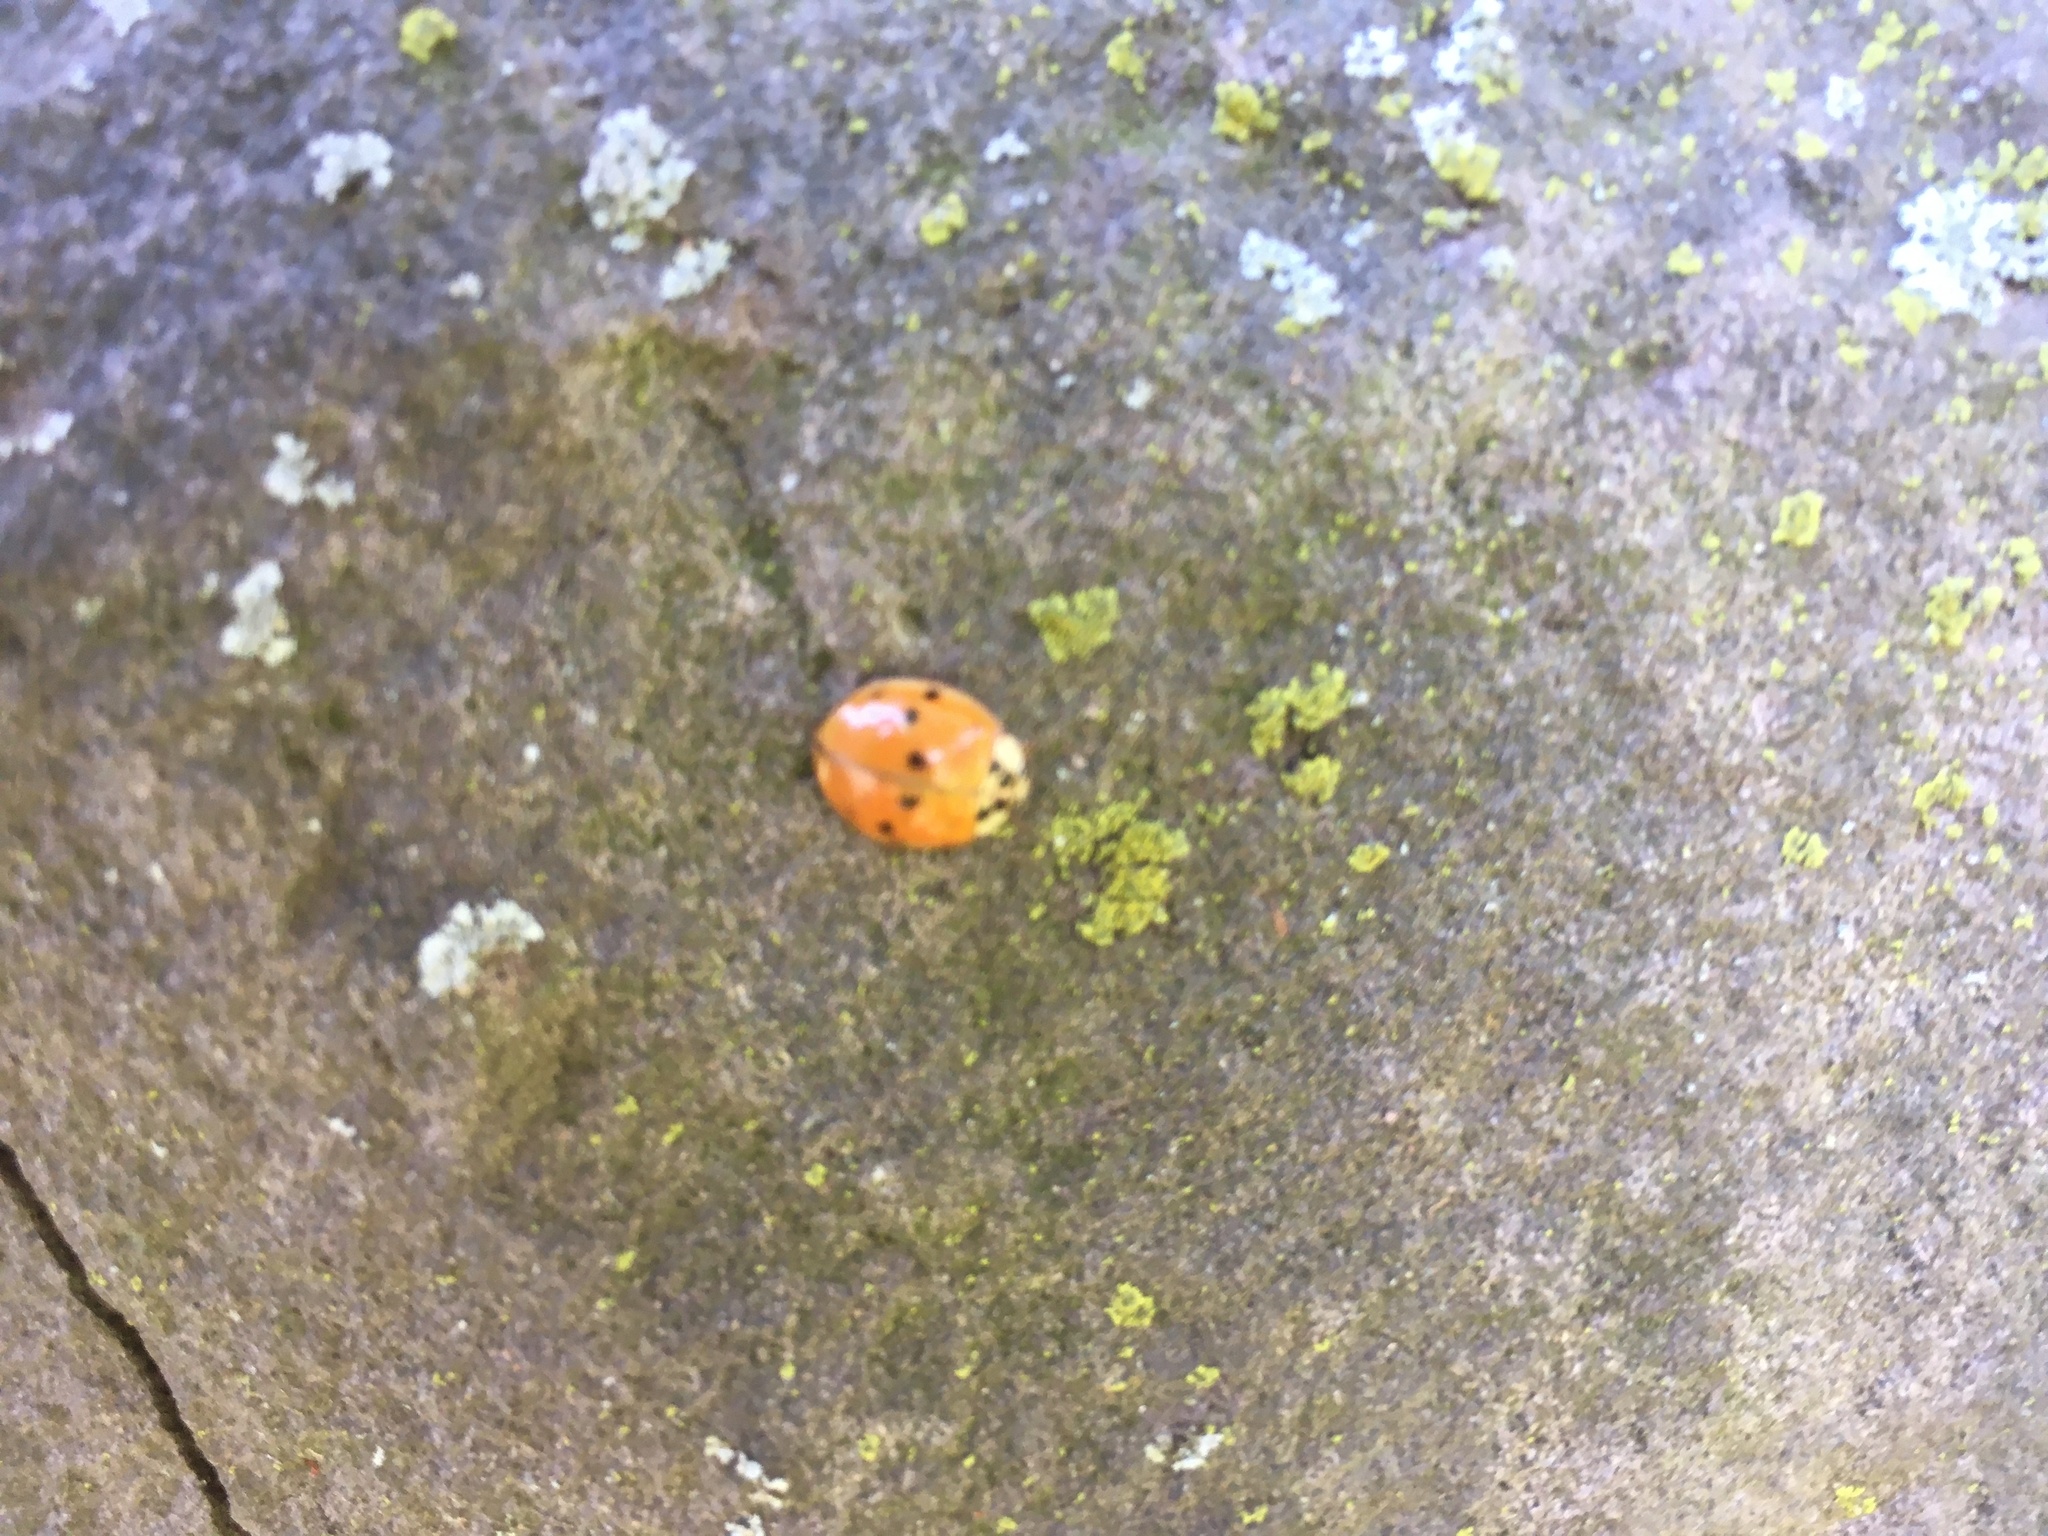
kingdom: Animalia
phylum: Arthropoda
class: Insecta
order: Coleoptera
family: Coccinellidae
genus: Harmonia
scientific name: Harmonia axyridis
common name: Harlequin ladybird
